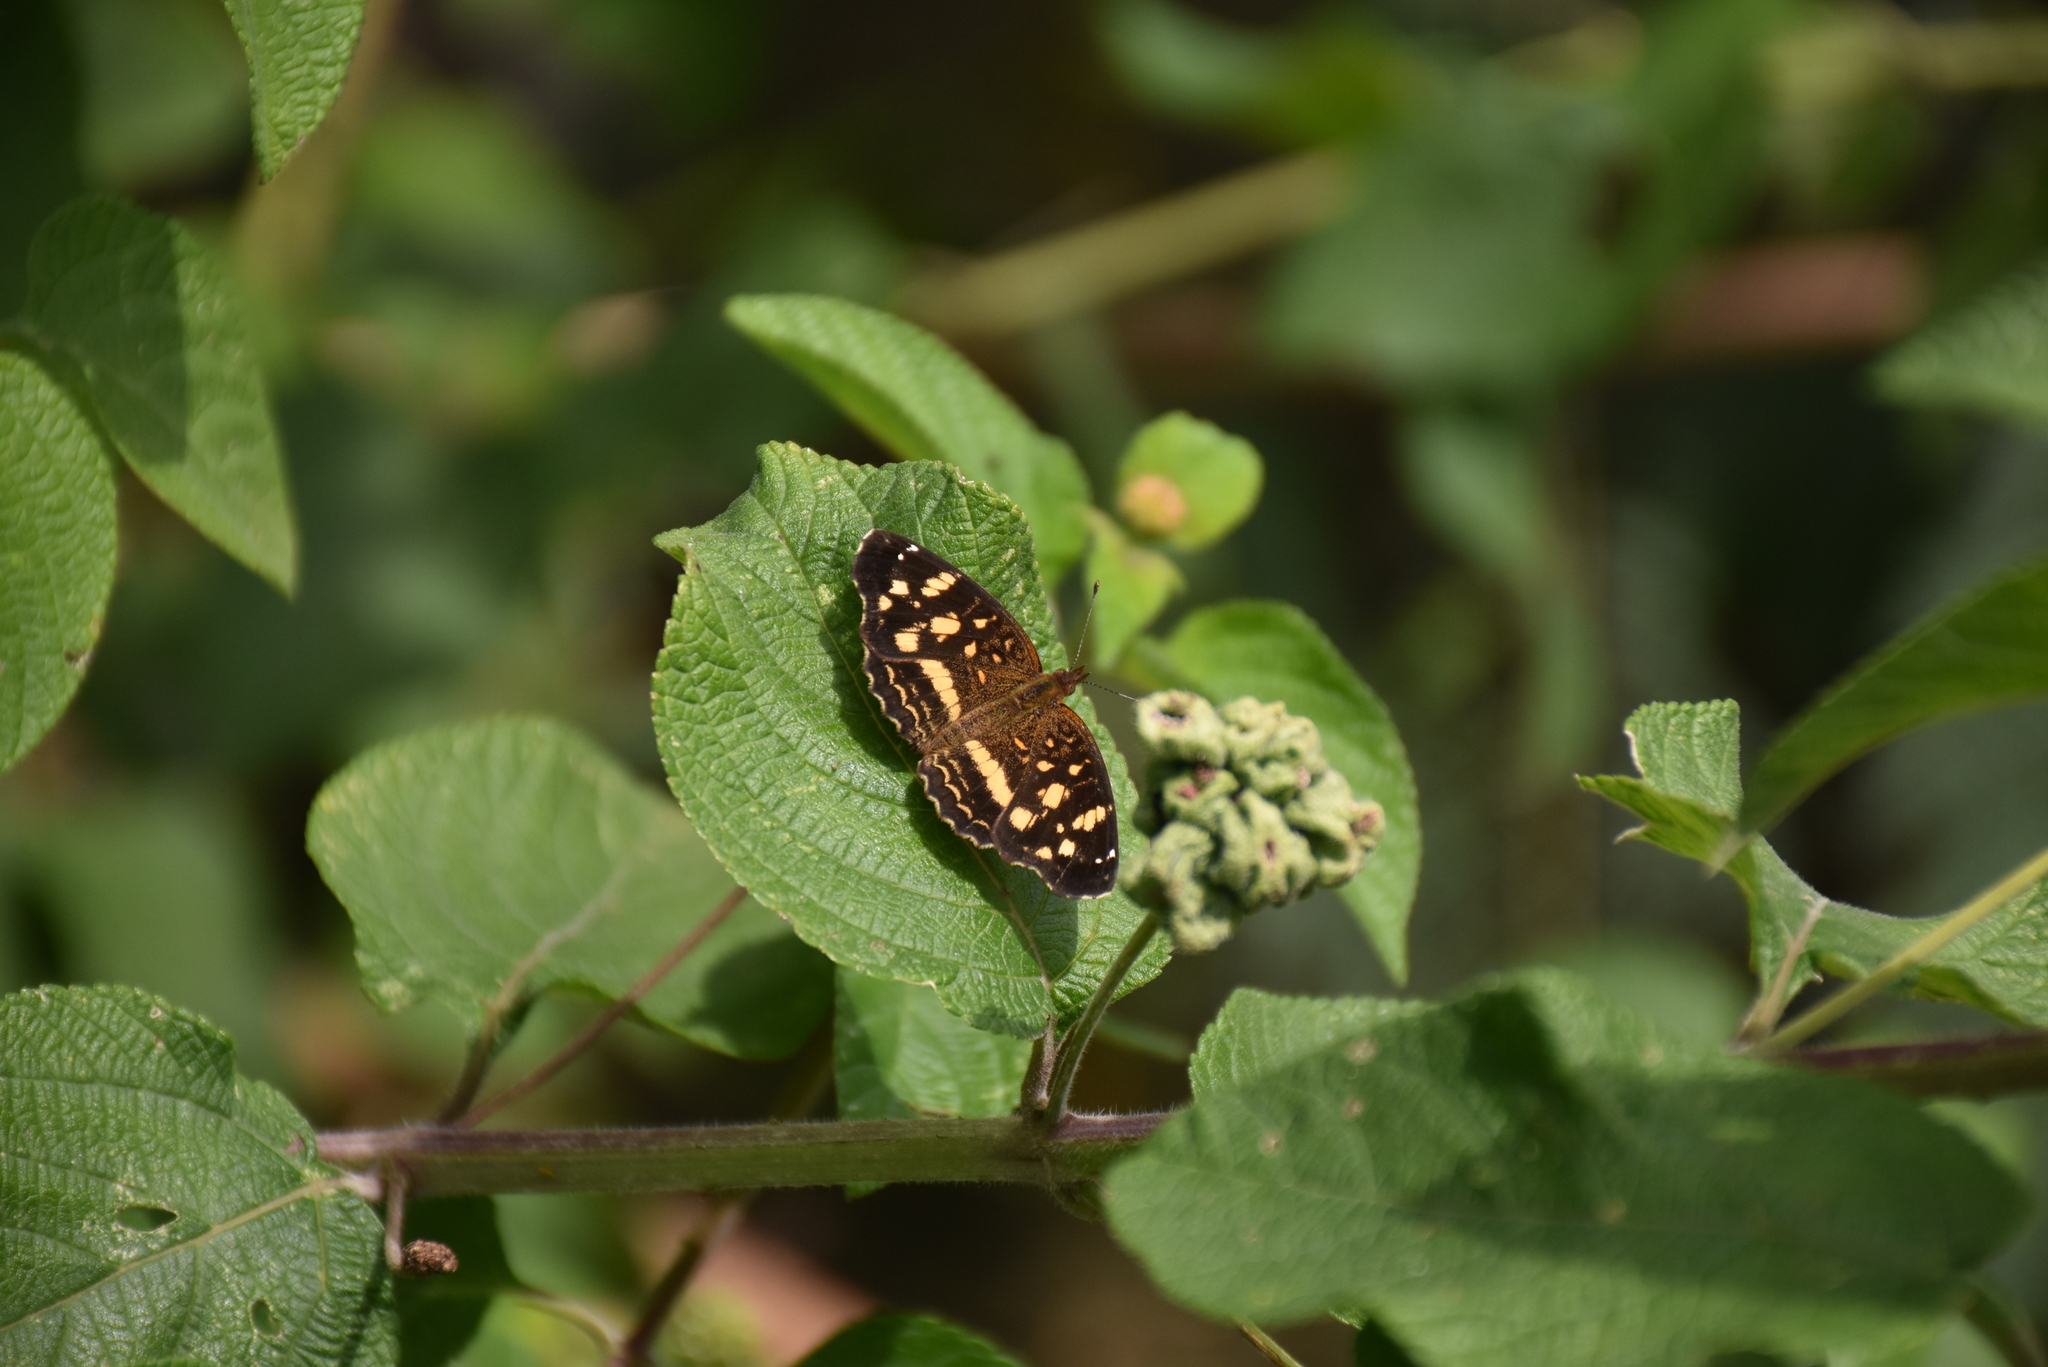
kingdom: Animalia
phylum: Arthropoda
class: Insecta
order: Lepidoptera
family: Nymphalidae
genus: Anthanassa
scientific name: Anthanassa drusilla
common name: Orange-patched crescent
